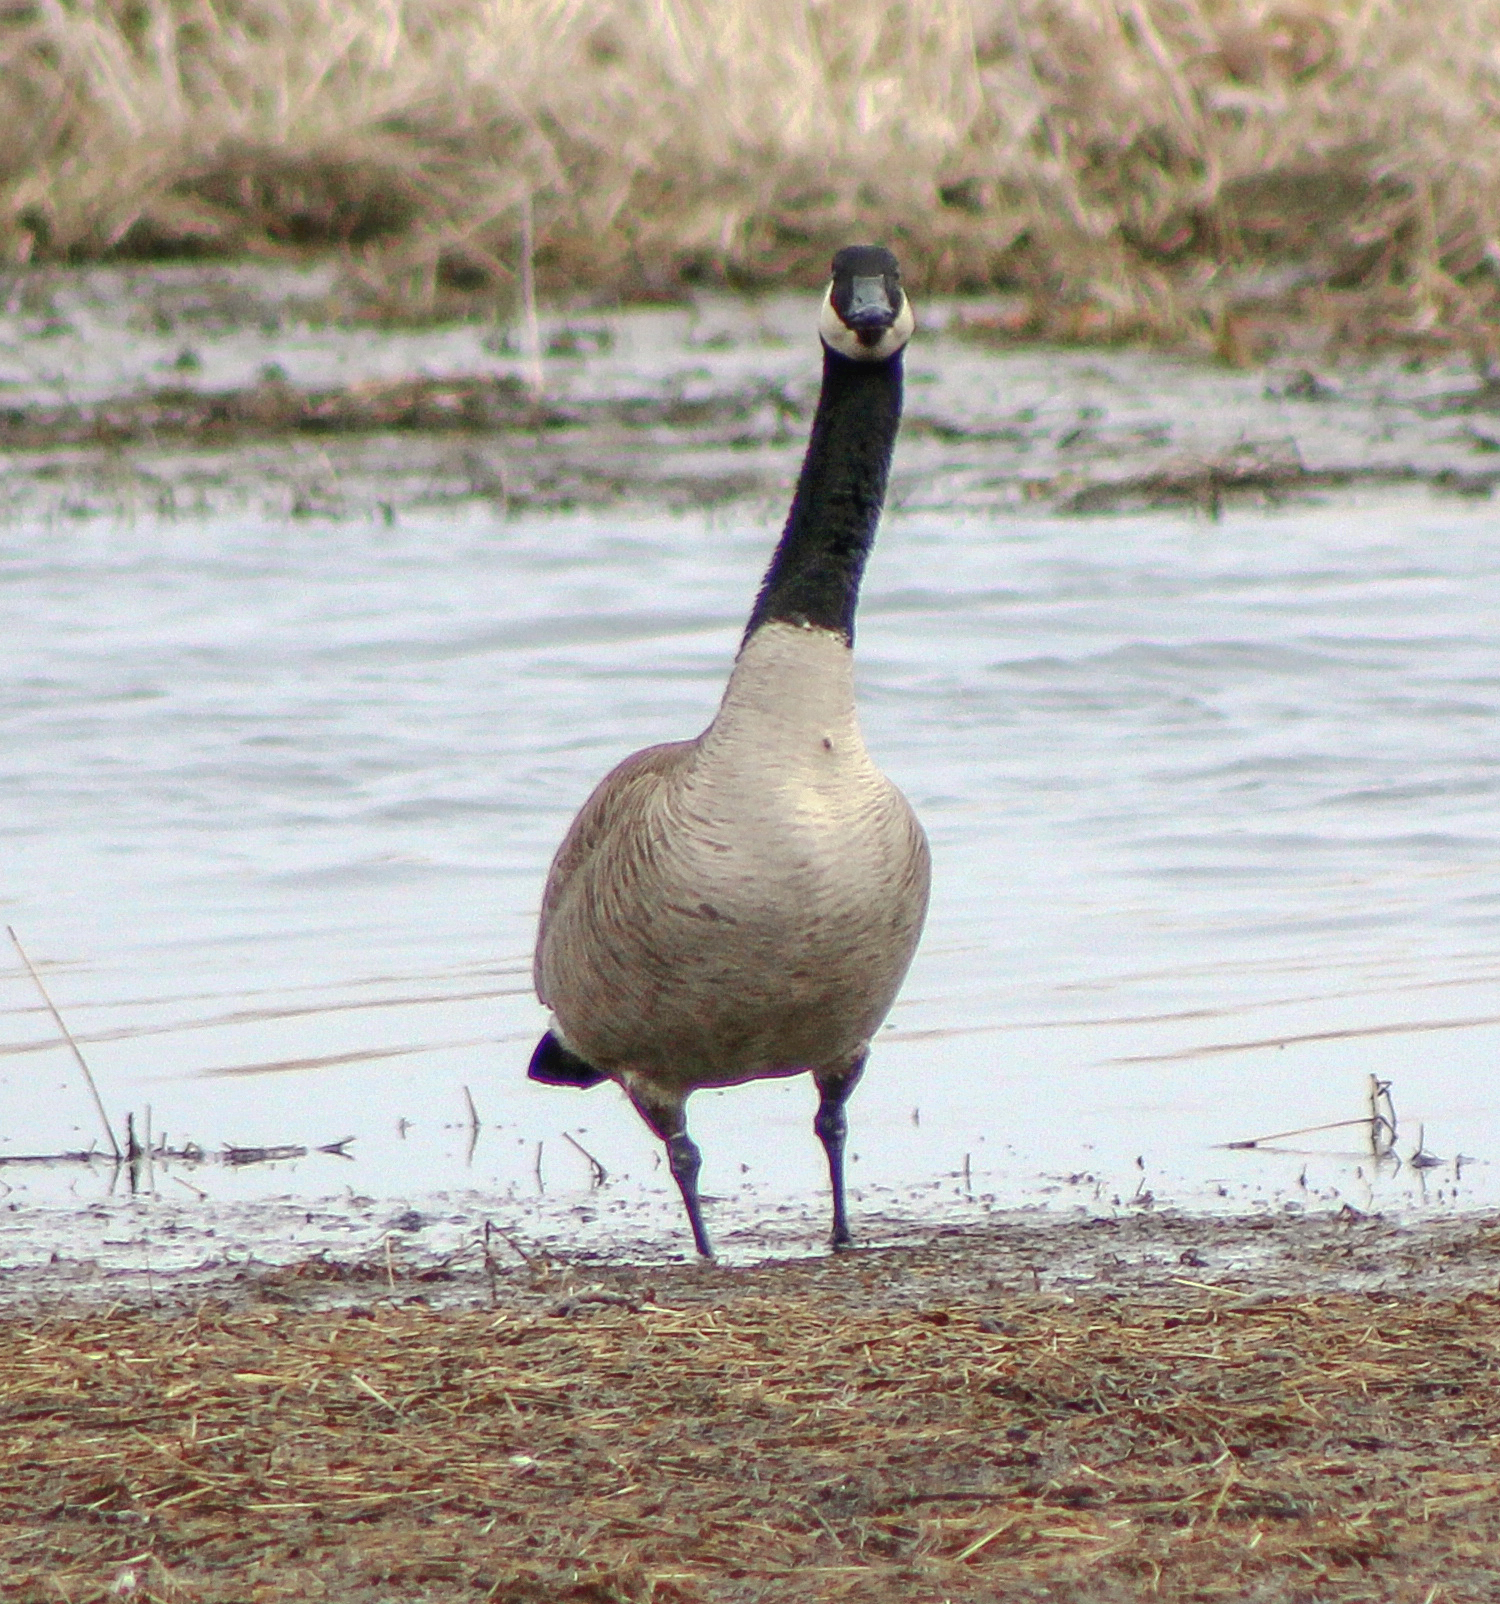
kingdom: Animalia
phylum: Chordata
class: Aves
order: Anseriformes
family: Anatidae
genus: Branta
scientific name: Branta canadensis
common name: Canada goose
